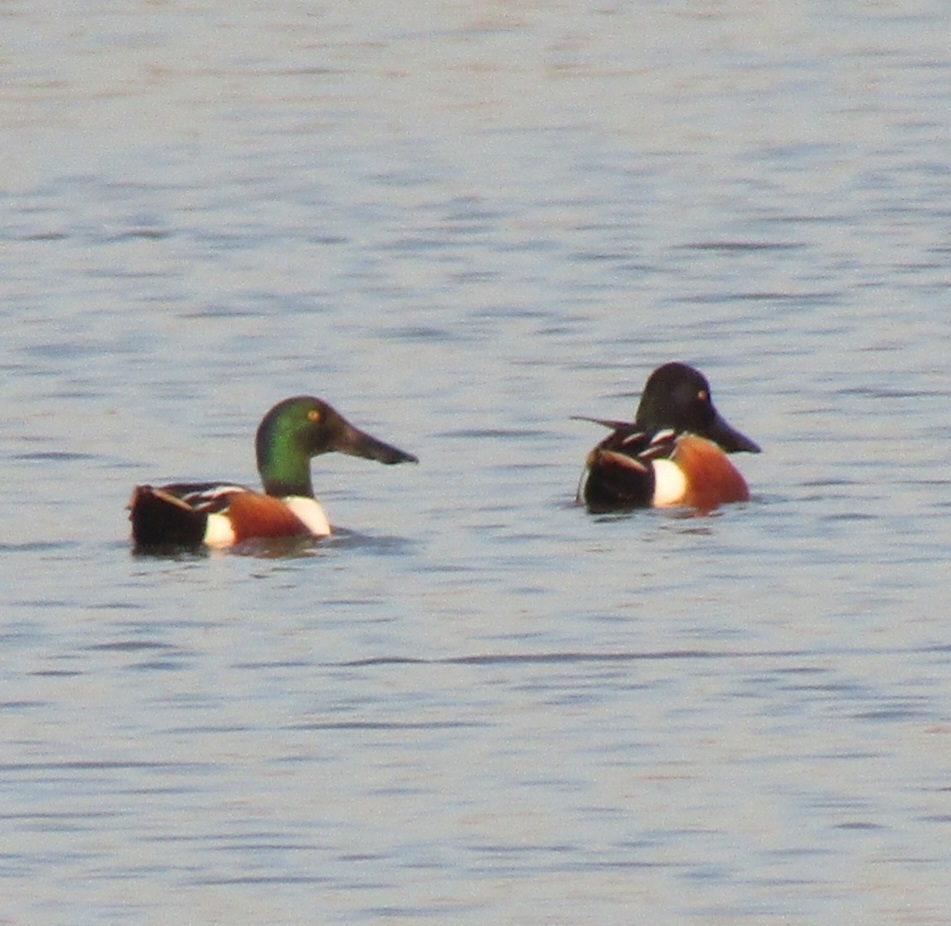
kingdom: Animalia
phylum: Chordata
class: Aves
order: Anseriformes
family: Anatidae
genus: Spatula
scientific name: Spatula clypeata
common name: Northern shoveler
